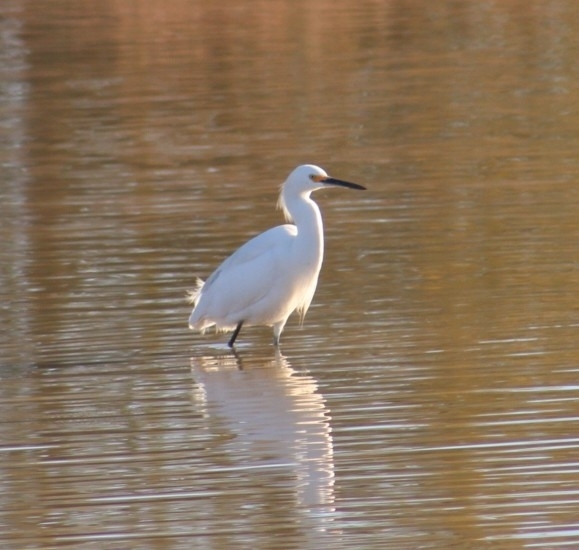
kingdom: Animalia
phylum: Chordata
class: Aves
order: Pelecaniformes
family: Ardeidae
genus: Egretta
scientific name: Egretta thula
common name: Snowy egret
